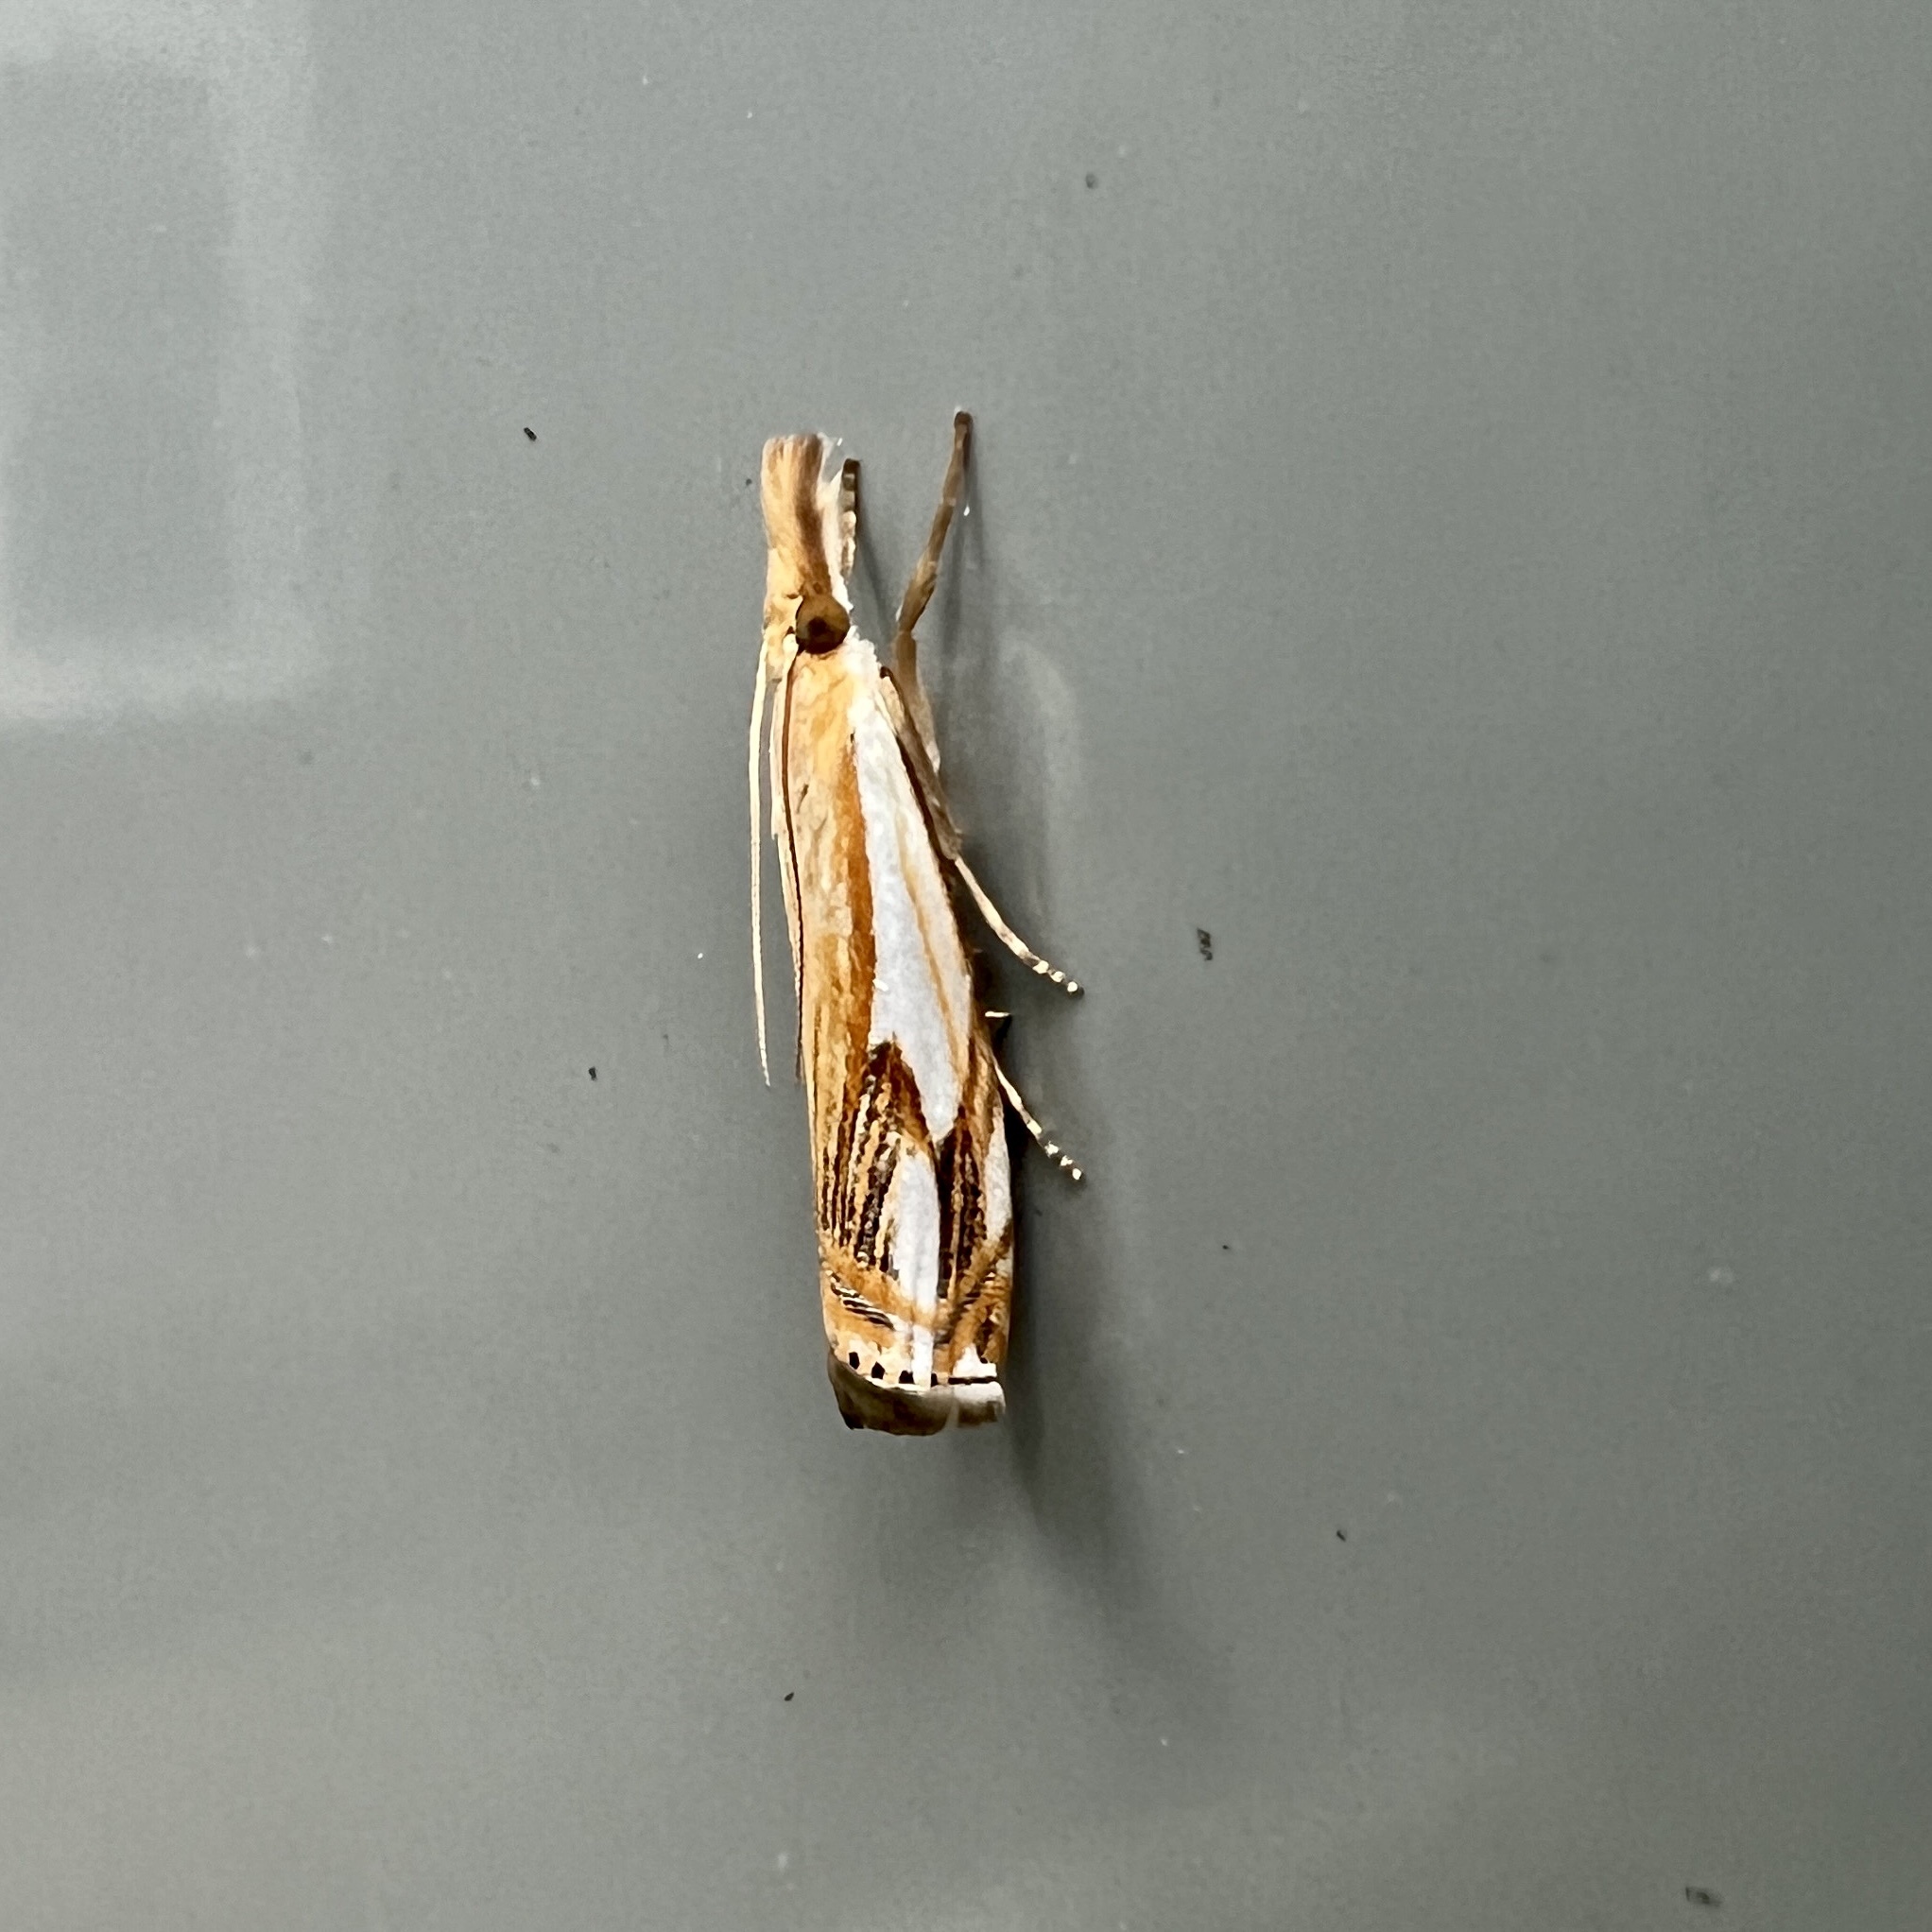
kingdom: Animalia
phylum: Arthropoda
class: Insecta
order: Lepidoptera
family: Crambidae
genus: Crambus
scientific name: Crambus agitatellus
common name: Double-banded grass-veneer
